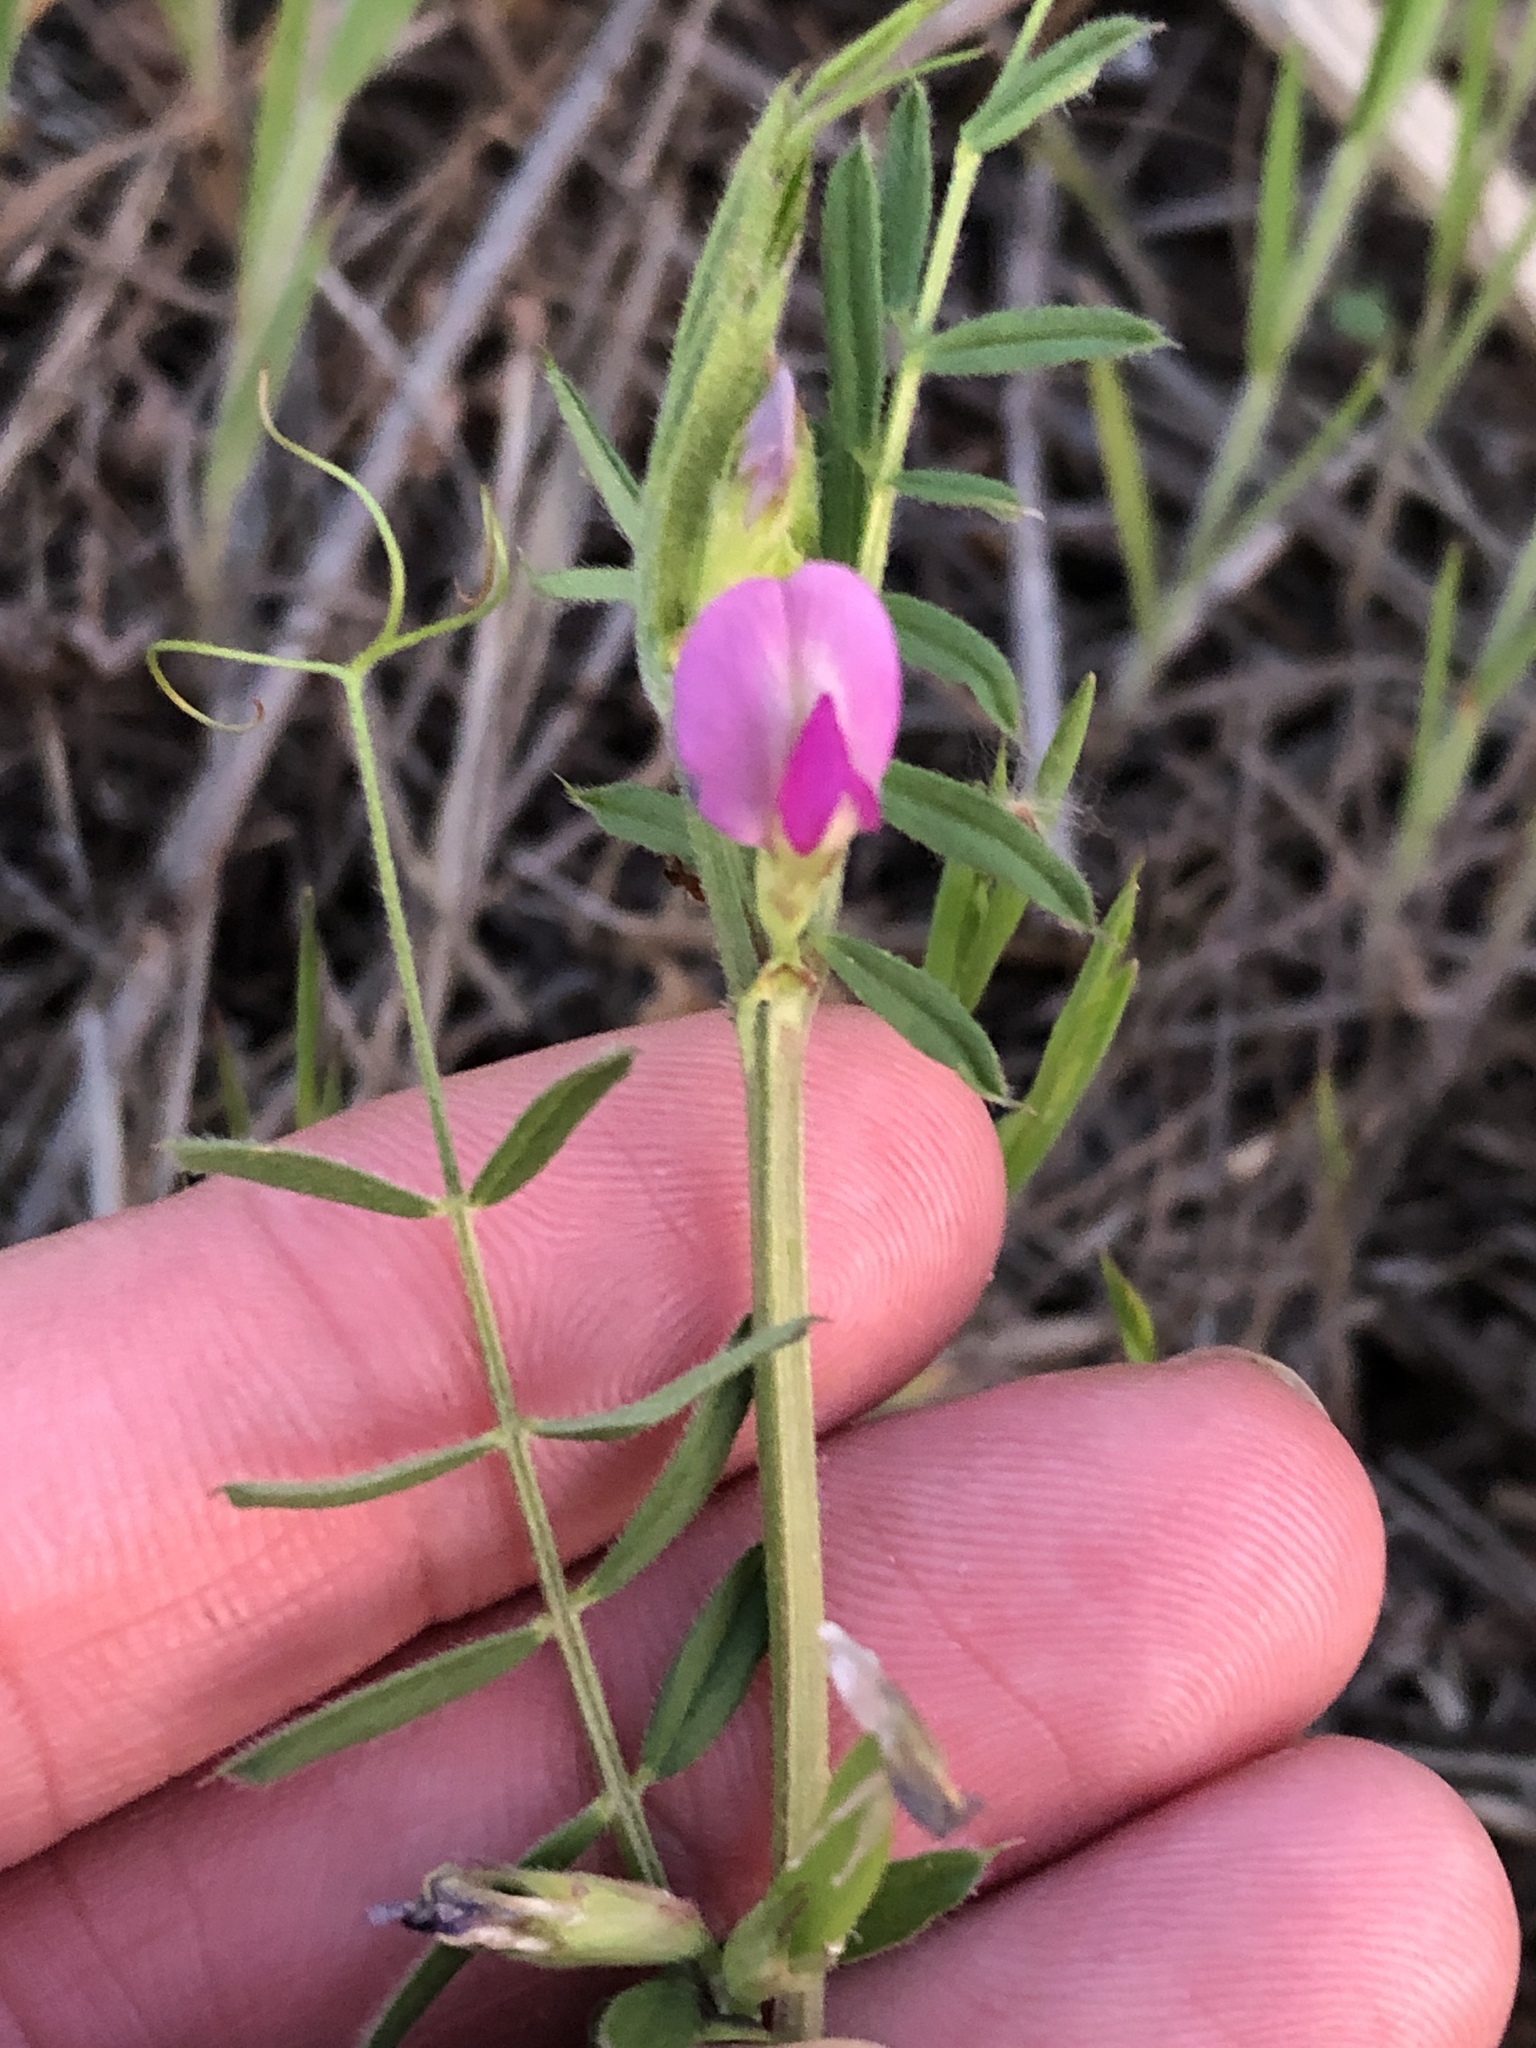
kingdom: Plantae
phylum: Tracheophyta
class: Magnoliopsida
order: Fabales
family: Fabaceae
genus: Vicia
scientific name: Vicia sativa
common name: Garden vetch
